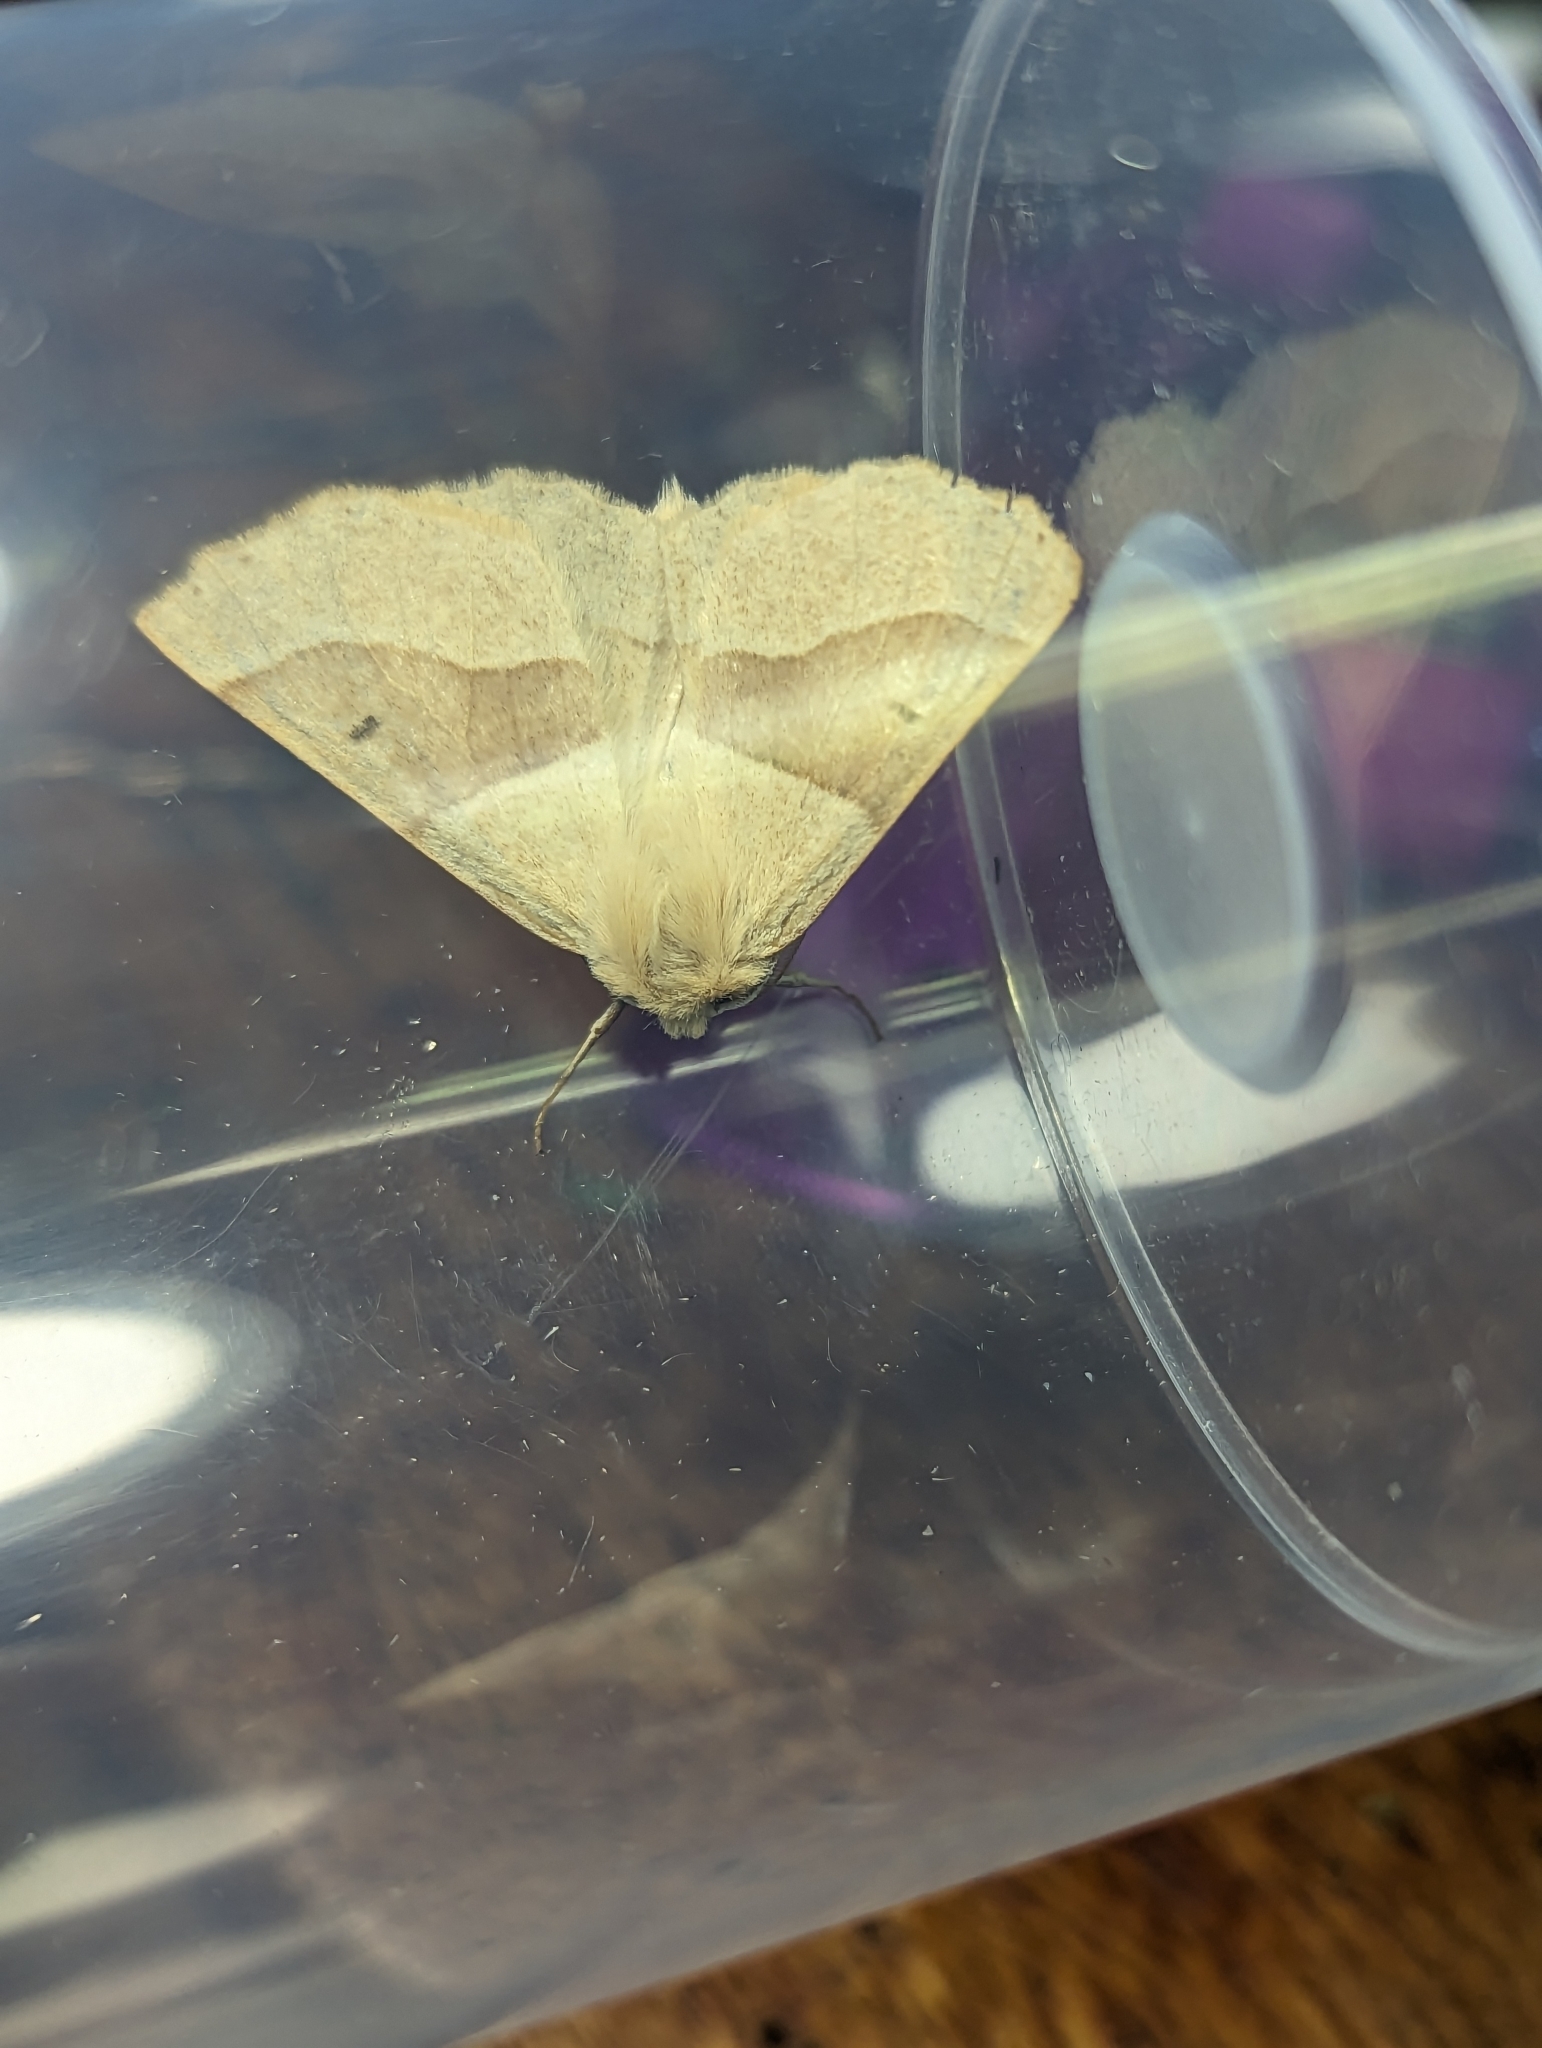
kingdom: Animalia
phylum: Arthropoda
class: Insecta
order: Lepidoptera
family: Geometridae
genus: Crocallis
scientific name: Crocallis elinguaria
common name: Scalloped oak
